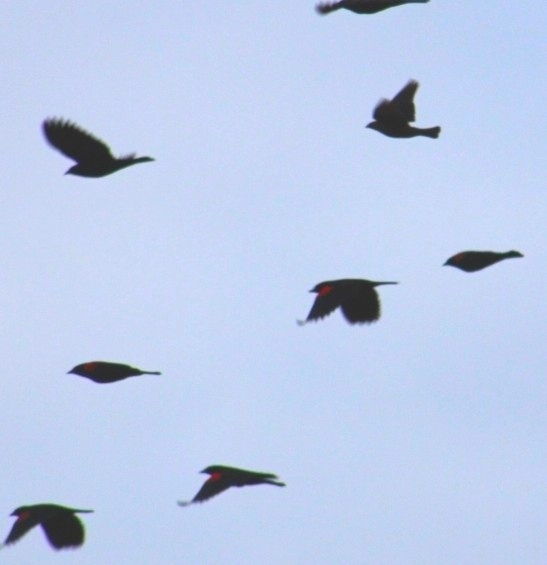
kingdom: Animalia
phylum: Chordata
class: Aves
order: Passeriformes
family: Icteridae
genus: Agelaius
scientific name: Agelaius phoeniceus
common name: Red-winged blackbird
